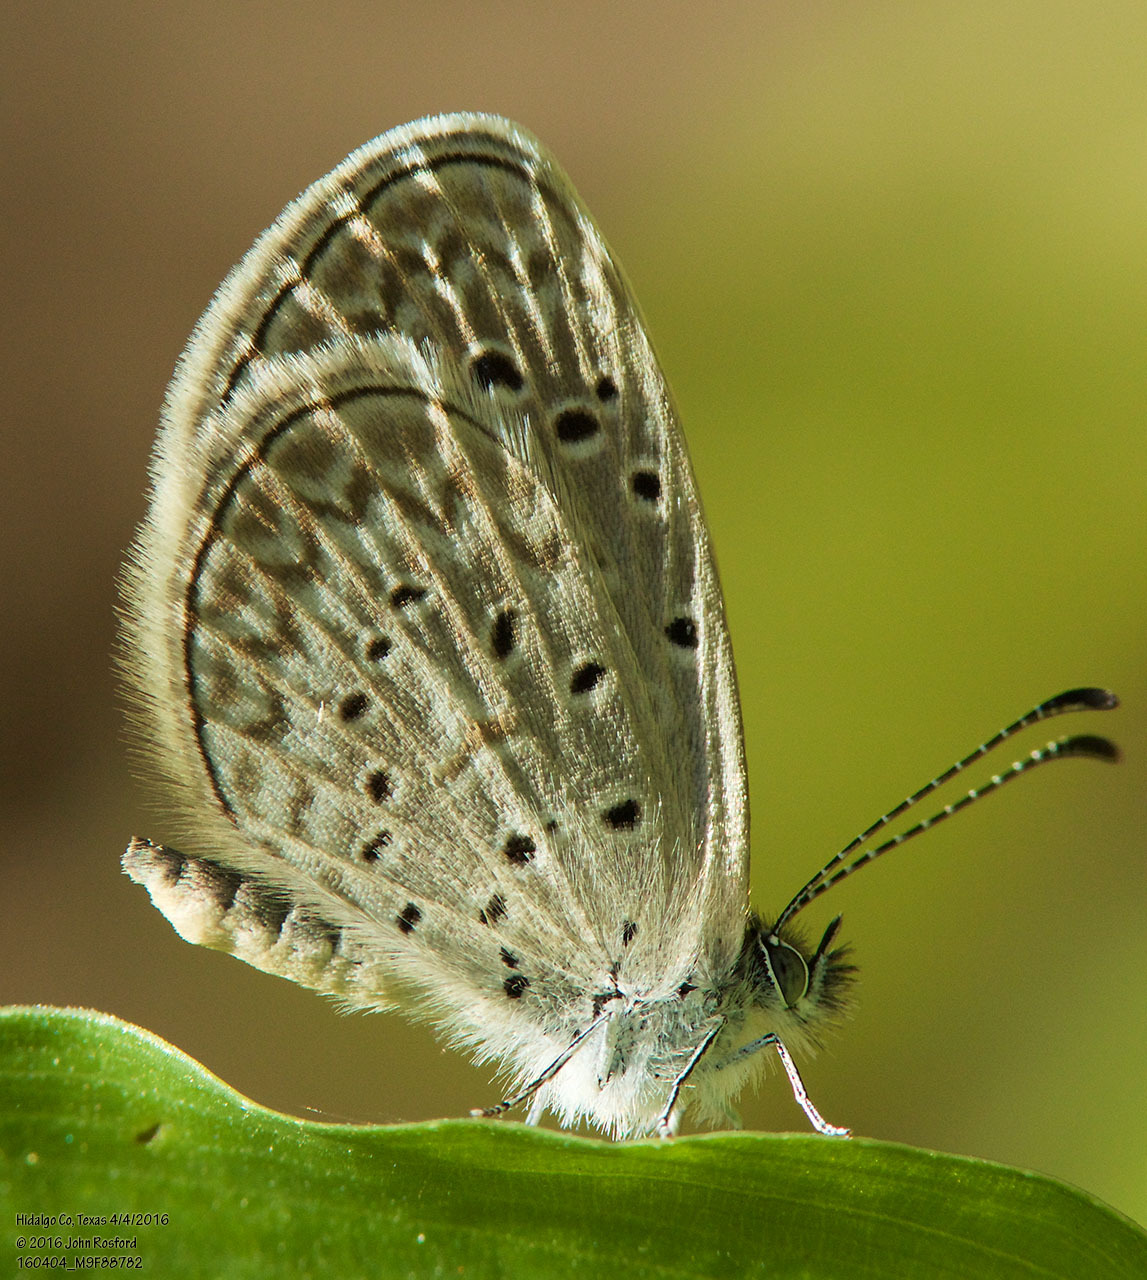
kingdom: Animalia
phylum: Arthropoda
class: Insecta
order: Lepidoptera
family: Lycaenidae
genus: Lycaena
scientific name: Lycaena cyna
